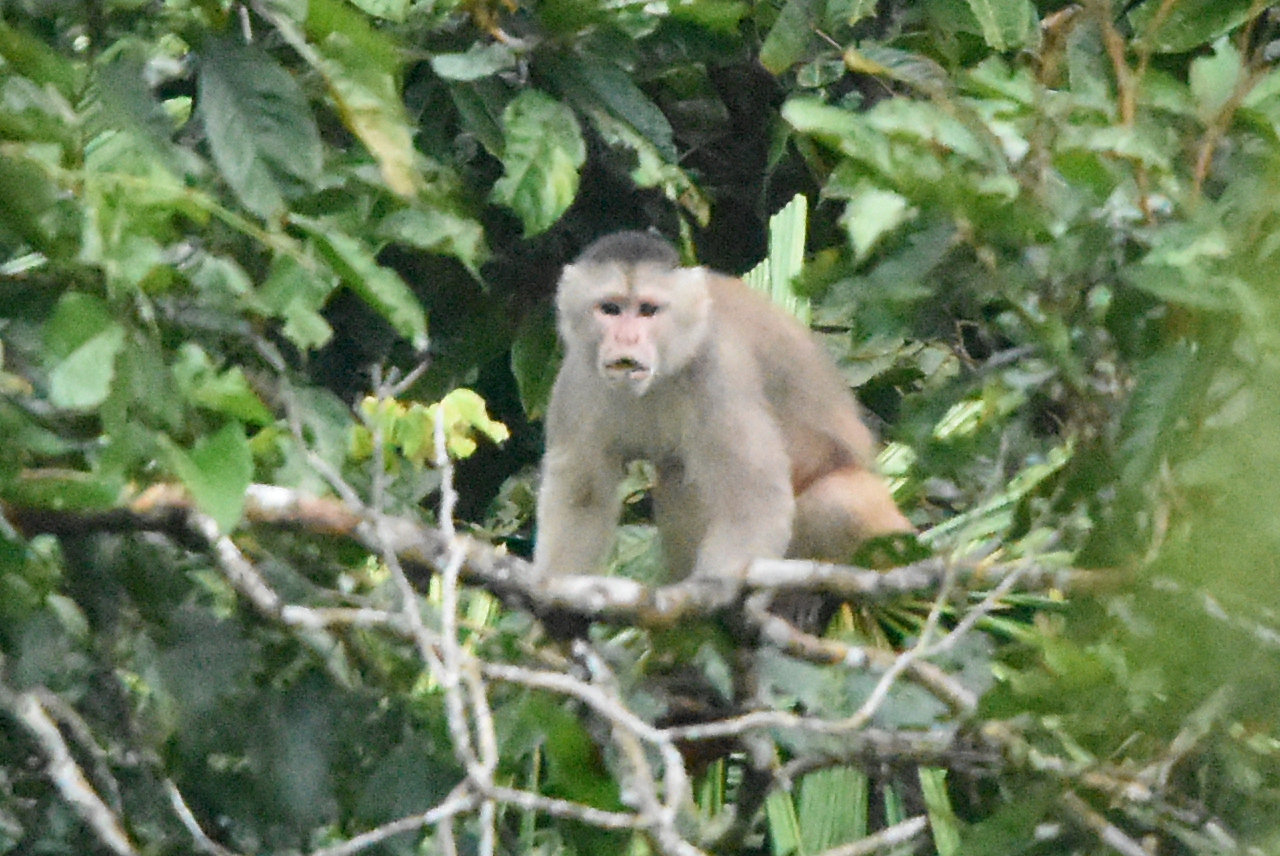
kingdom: Animalia
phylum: Chordata
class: Mammalia
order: Primates
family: Cebidae
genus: Cebus
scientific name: Cebus yuracus
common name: Peruvian white-fronted capuchin
